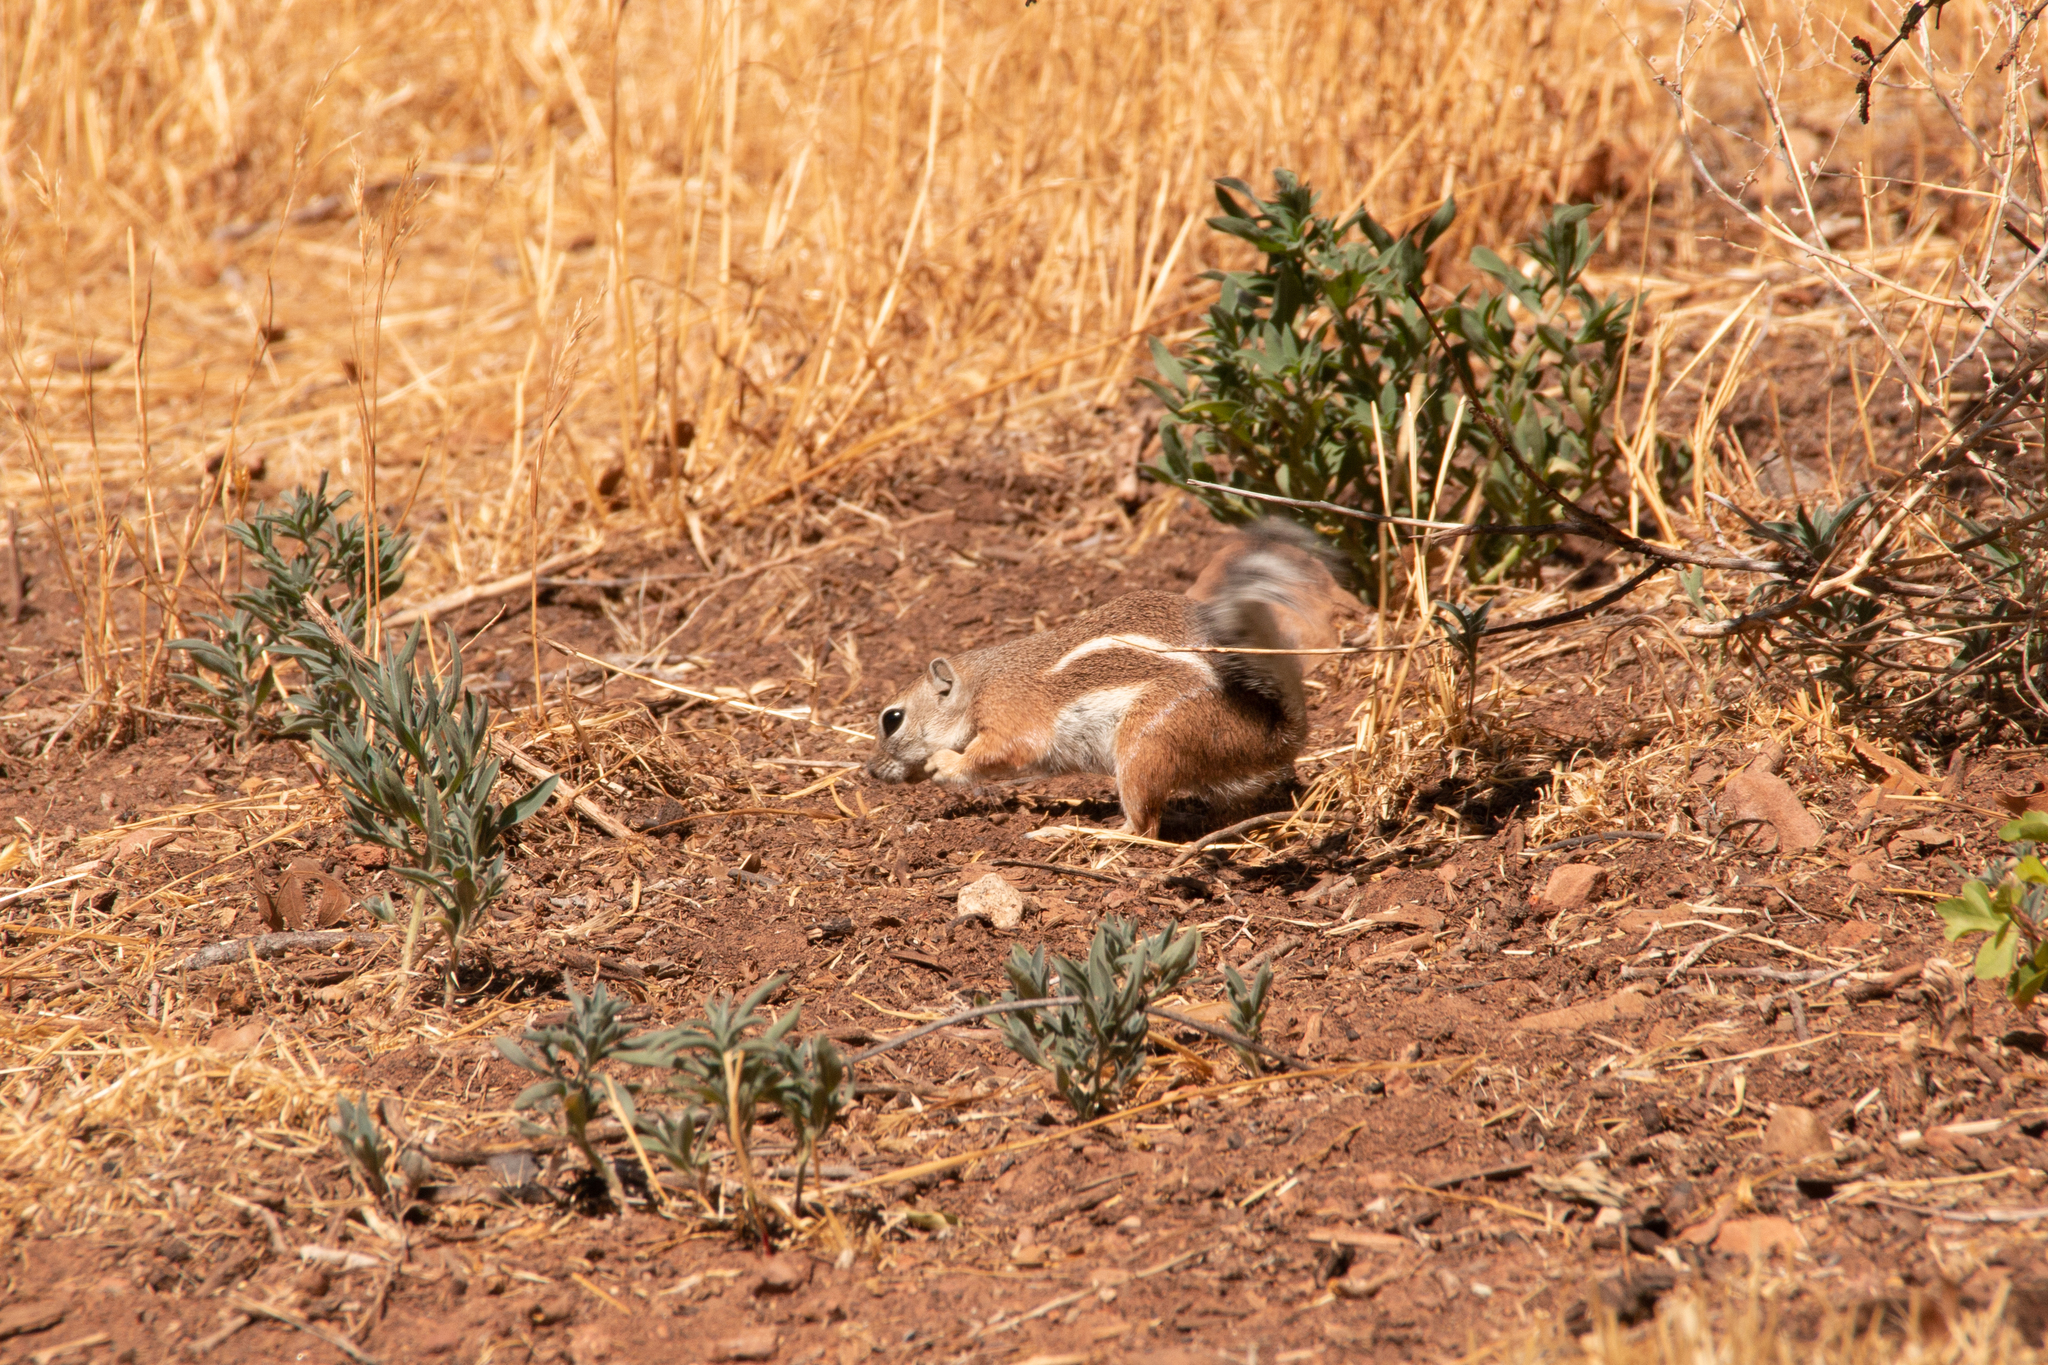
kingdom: Animalia
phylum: Chordata
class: Mammalia
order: Rodentia
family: Sciuridae
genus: Ammospermophilus
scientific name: Ammospermophilus leucurus
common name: White-tailed antelope squirrel
